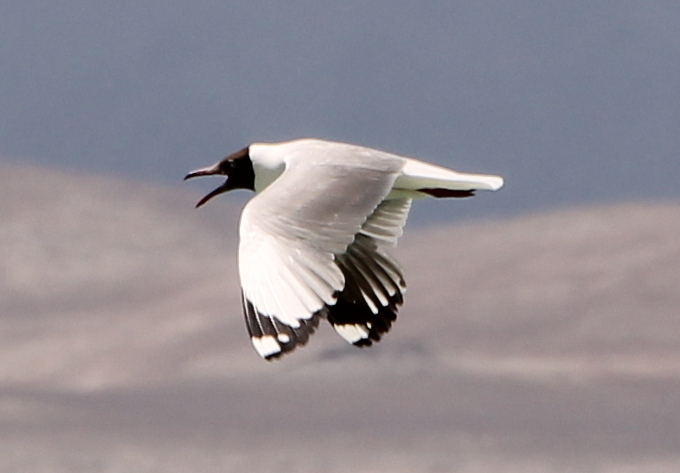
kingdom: Animalia
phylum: Chordata
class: Aves
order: Charadriiformes
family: Laridae
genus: Chroicocephalus
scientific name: Chroicocephalus brunnicephalus
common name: Brown-headed gull
